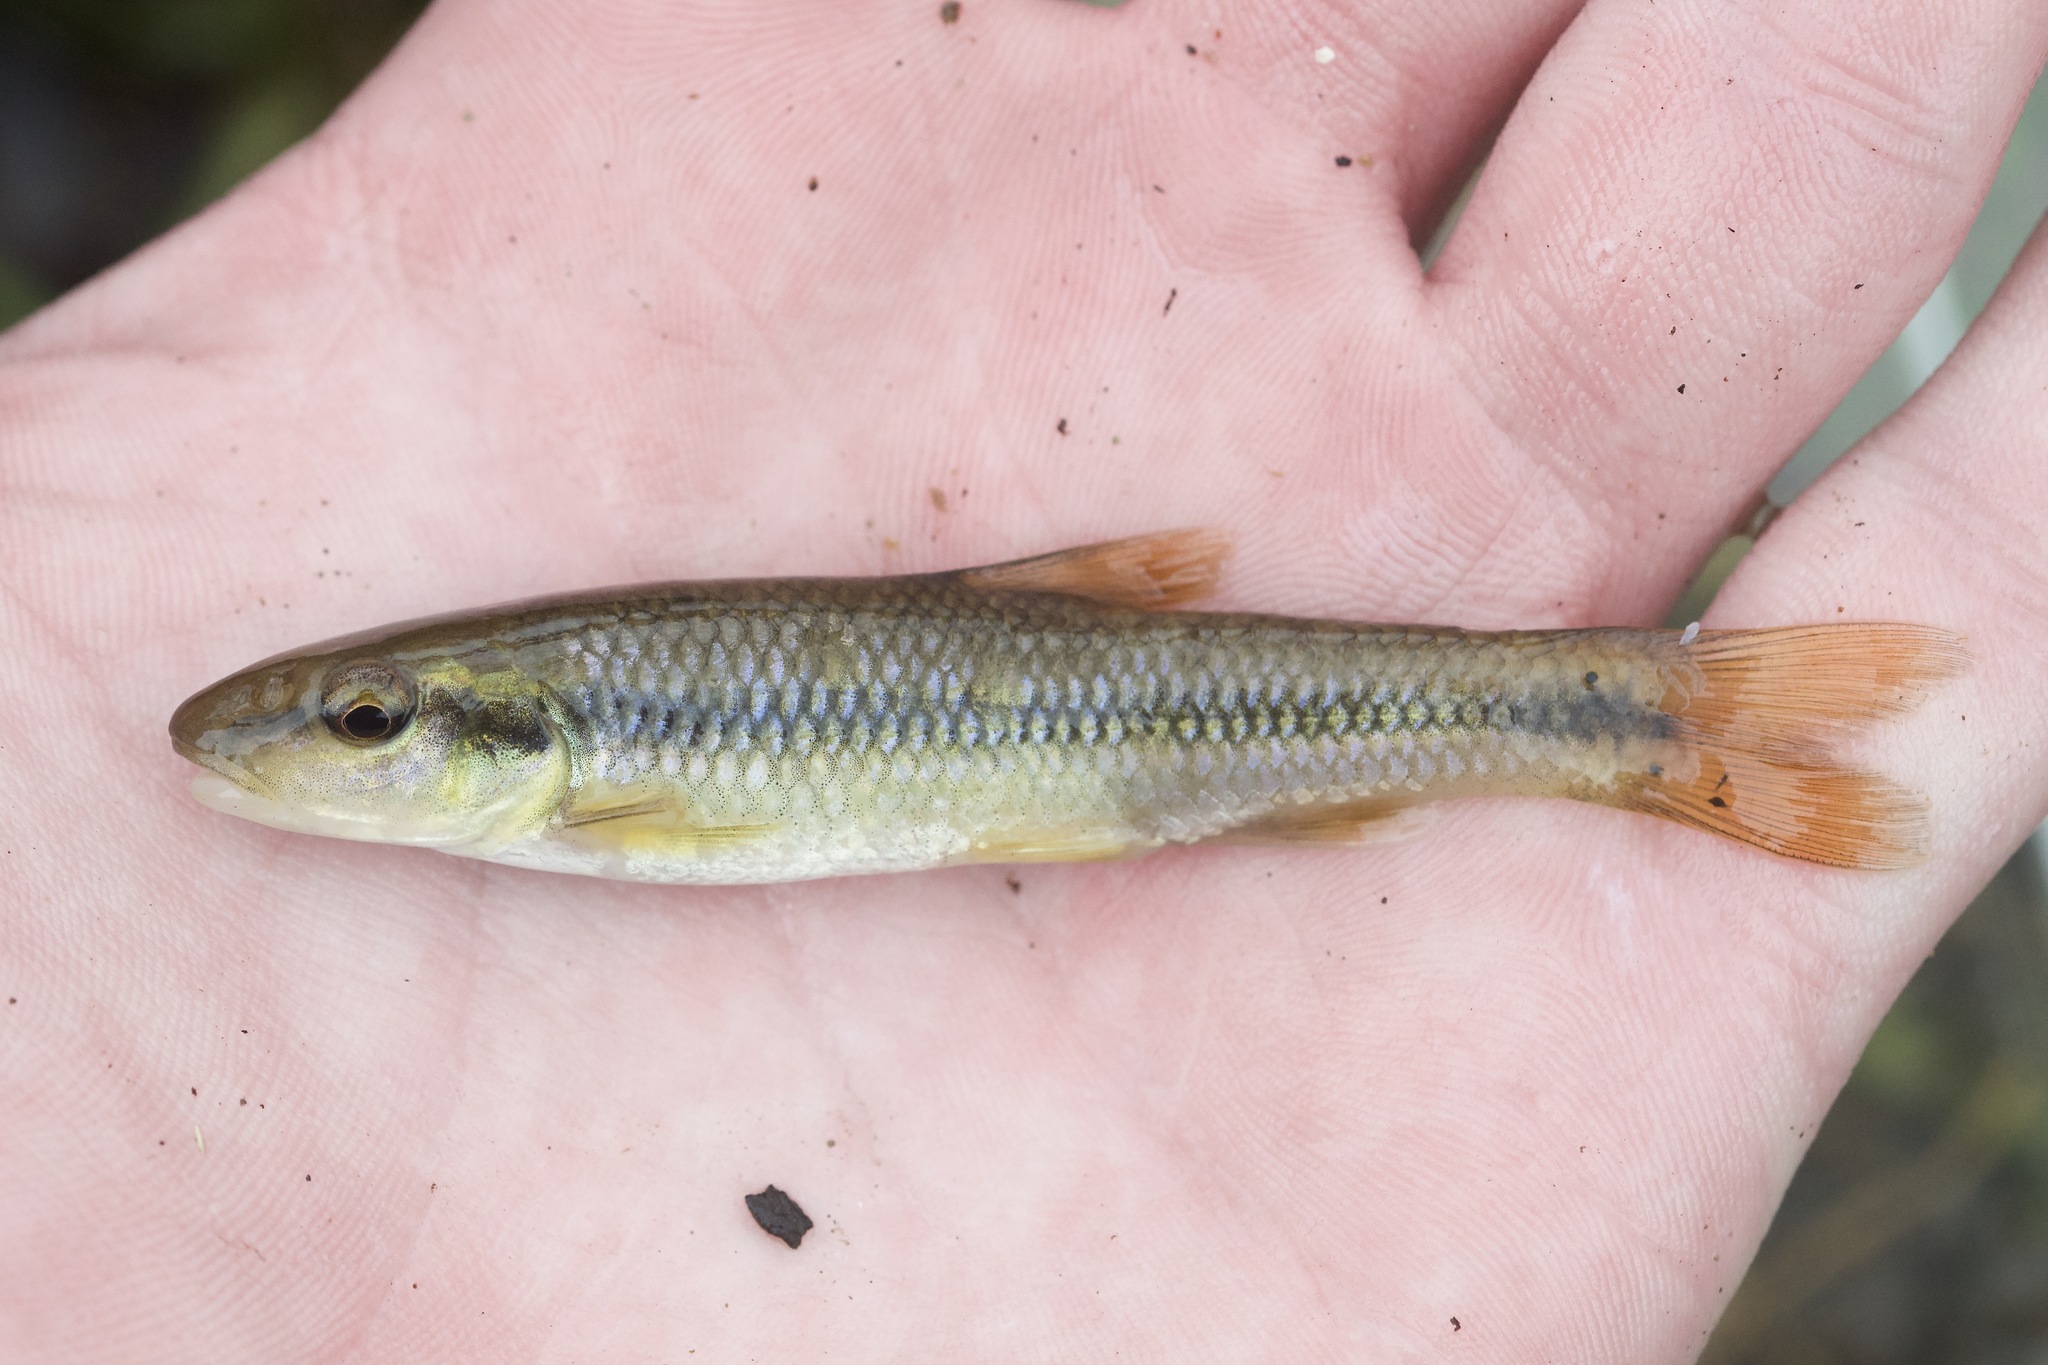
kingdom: Animalia
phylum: Chordata
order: Cypriniformes
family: Cyprinidae
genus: Nocomis
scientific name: Nocomis micropogon
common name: River chub
